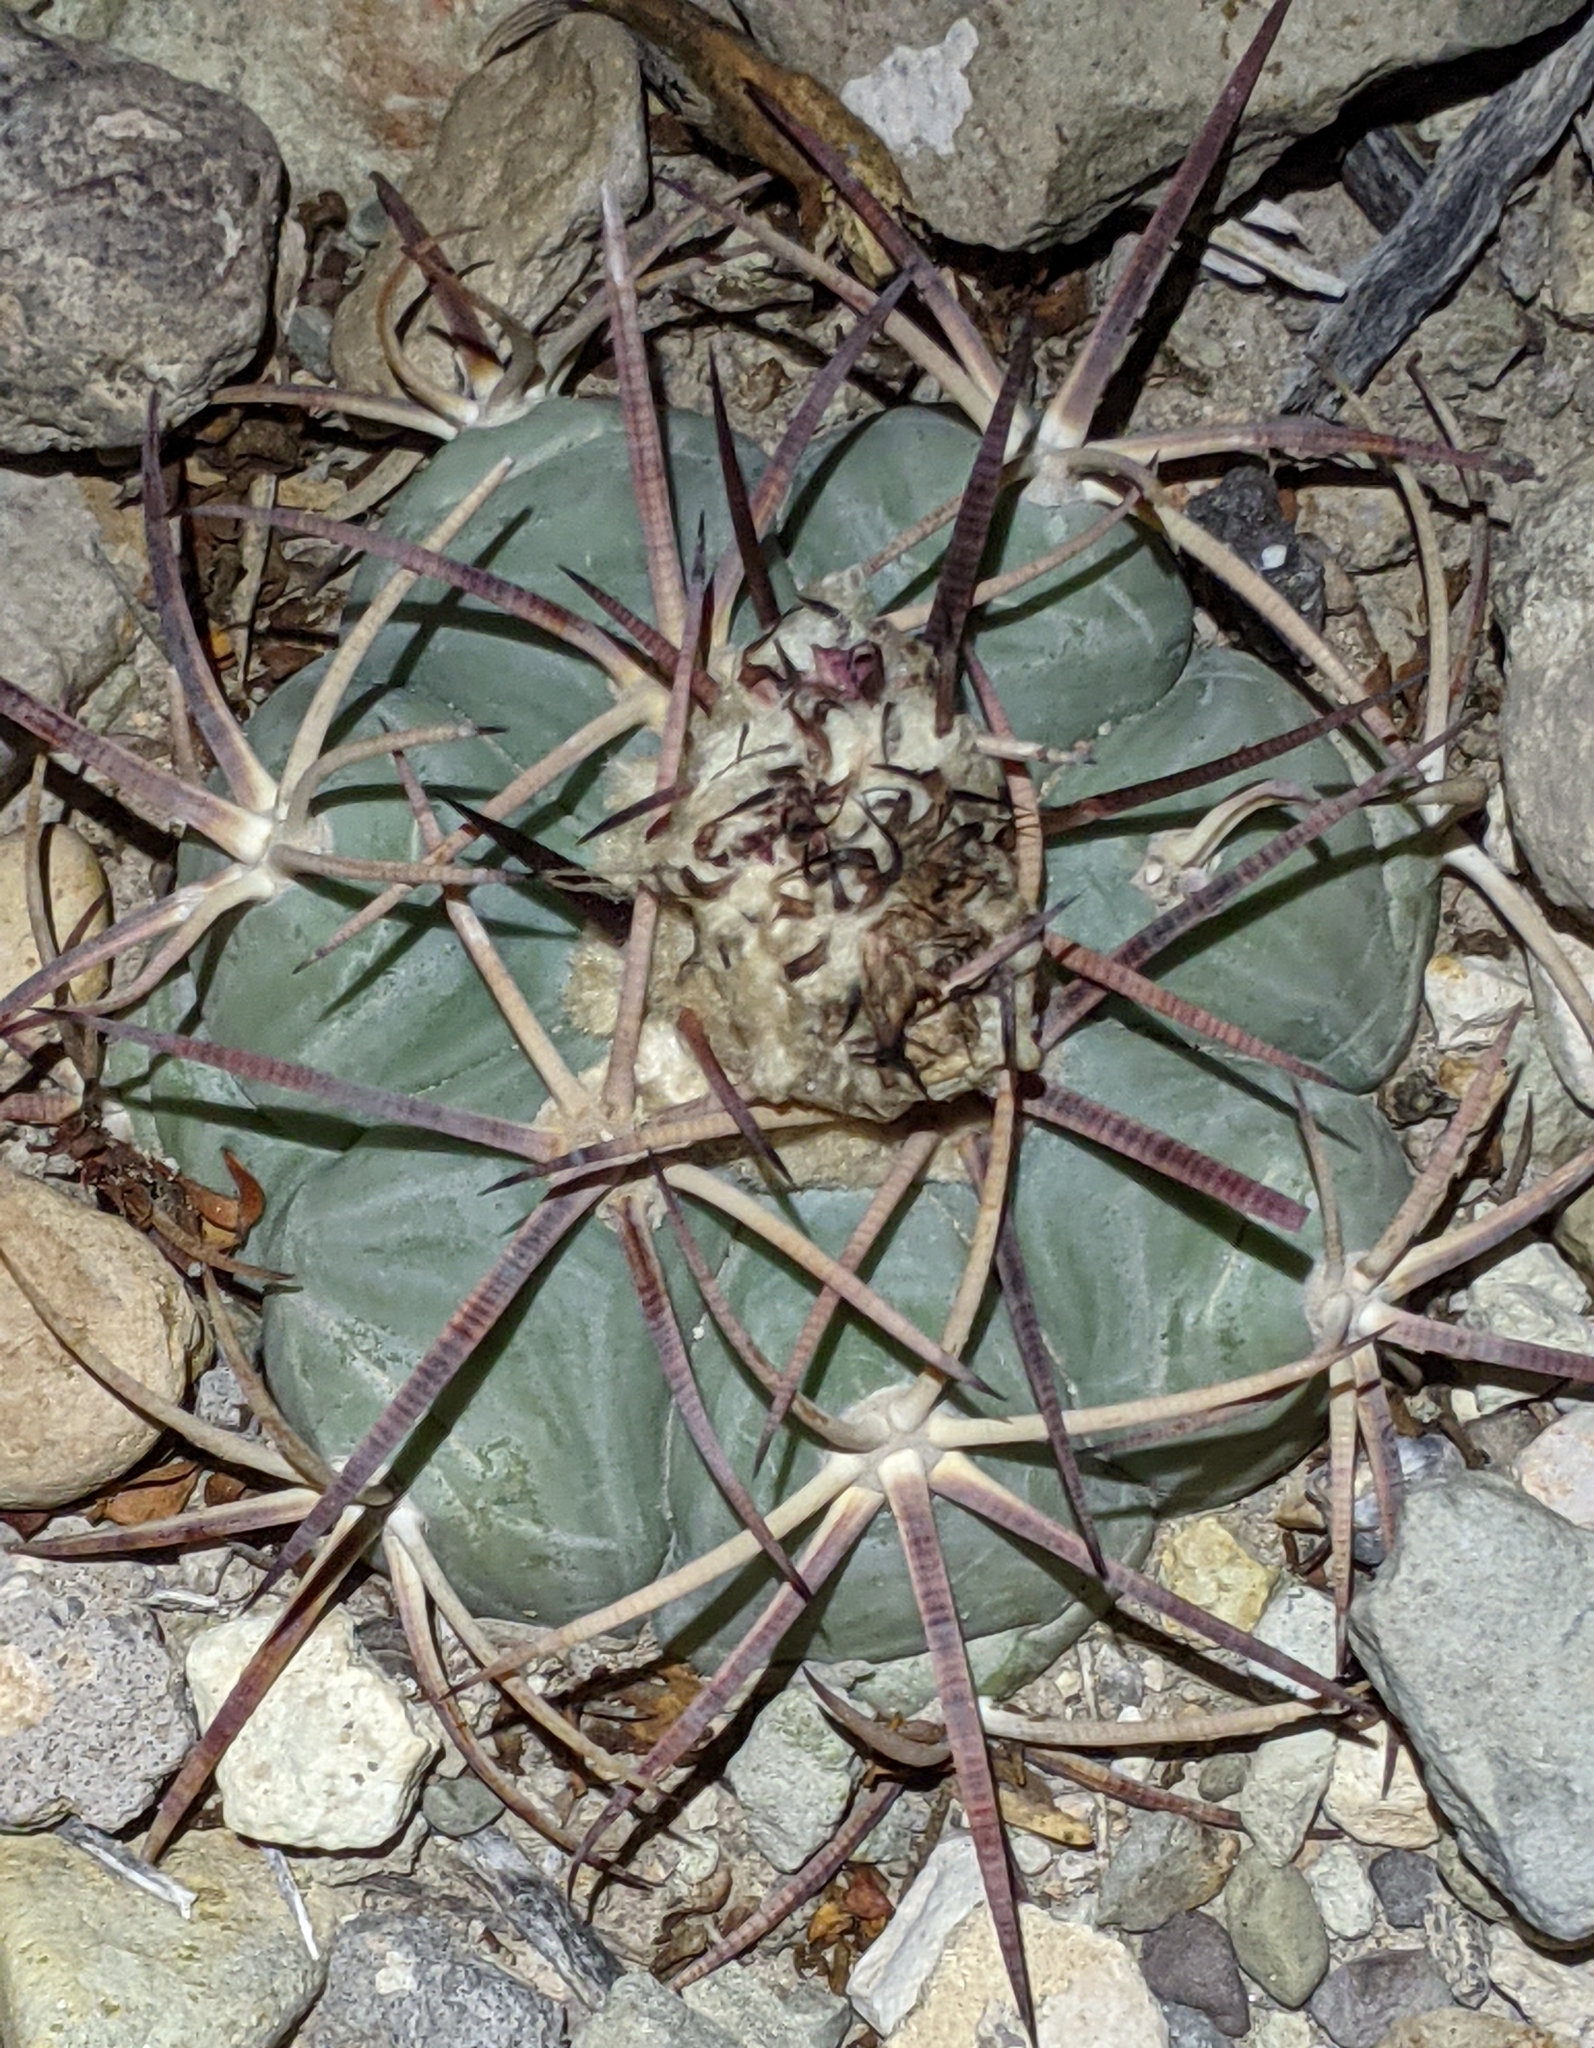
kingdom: Plantae
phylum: Tracheophyta
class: Magnoliopsida
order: Caryophyllales
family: Cactaceae
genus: Echinocactus
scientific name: Echinocactus horizonthalonius
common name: Devilshead
